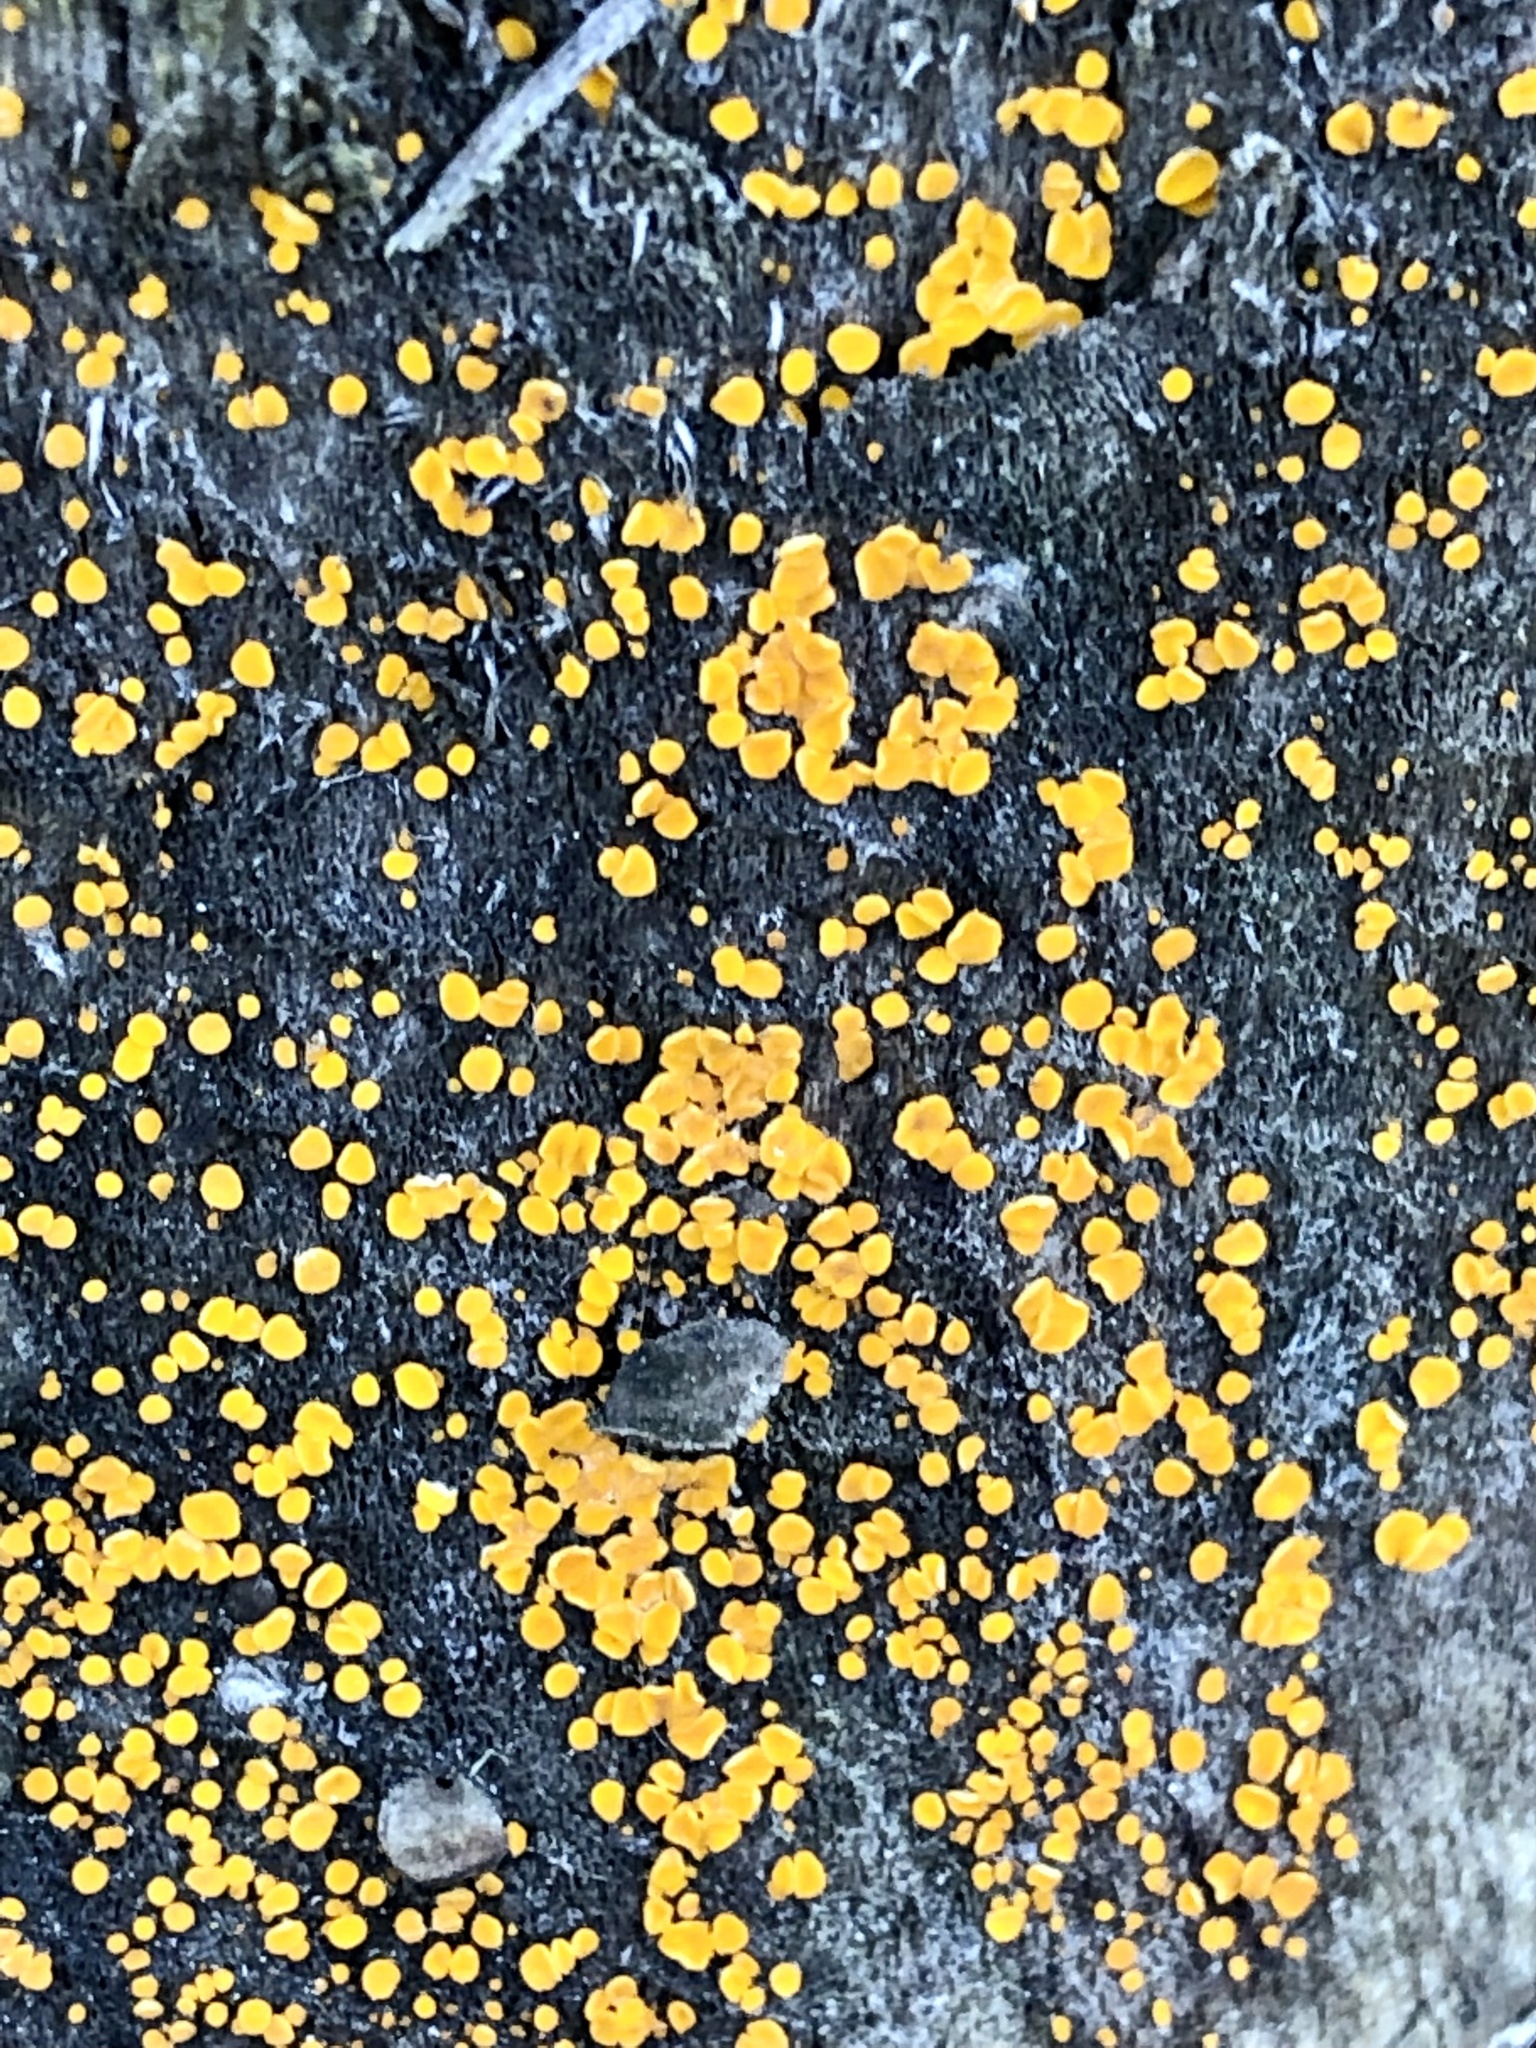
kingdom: Fungi
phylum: Ascomycota
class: Leotiomycetes
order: Helotiales
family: Pezizellaceae
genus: Calycina
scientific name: Calycina citrina
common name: Yellow fairy cups
